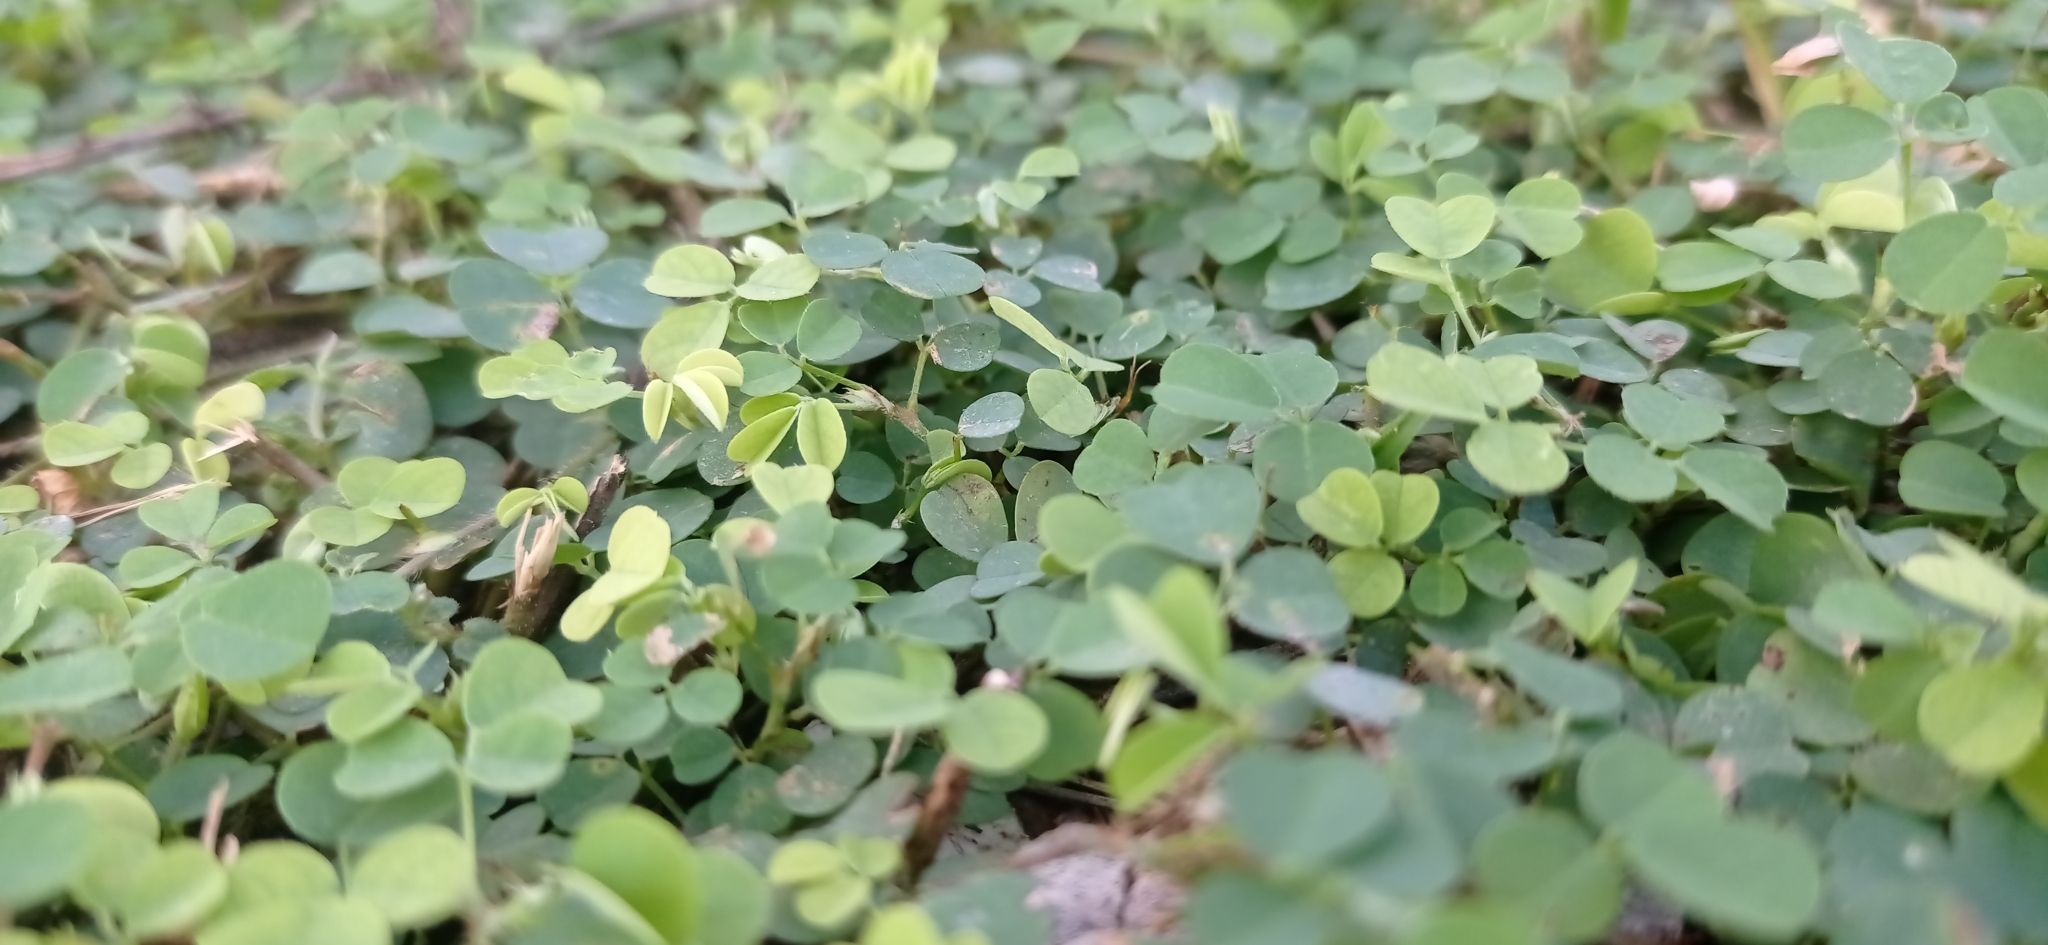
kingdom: Plantae
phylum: Tracheophyta
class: Magnoliopsida
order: Fabales
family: Fabaceae
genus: Grona
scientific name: Grona triflora
